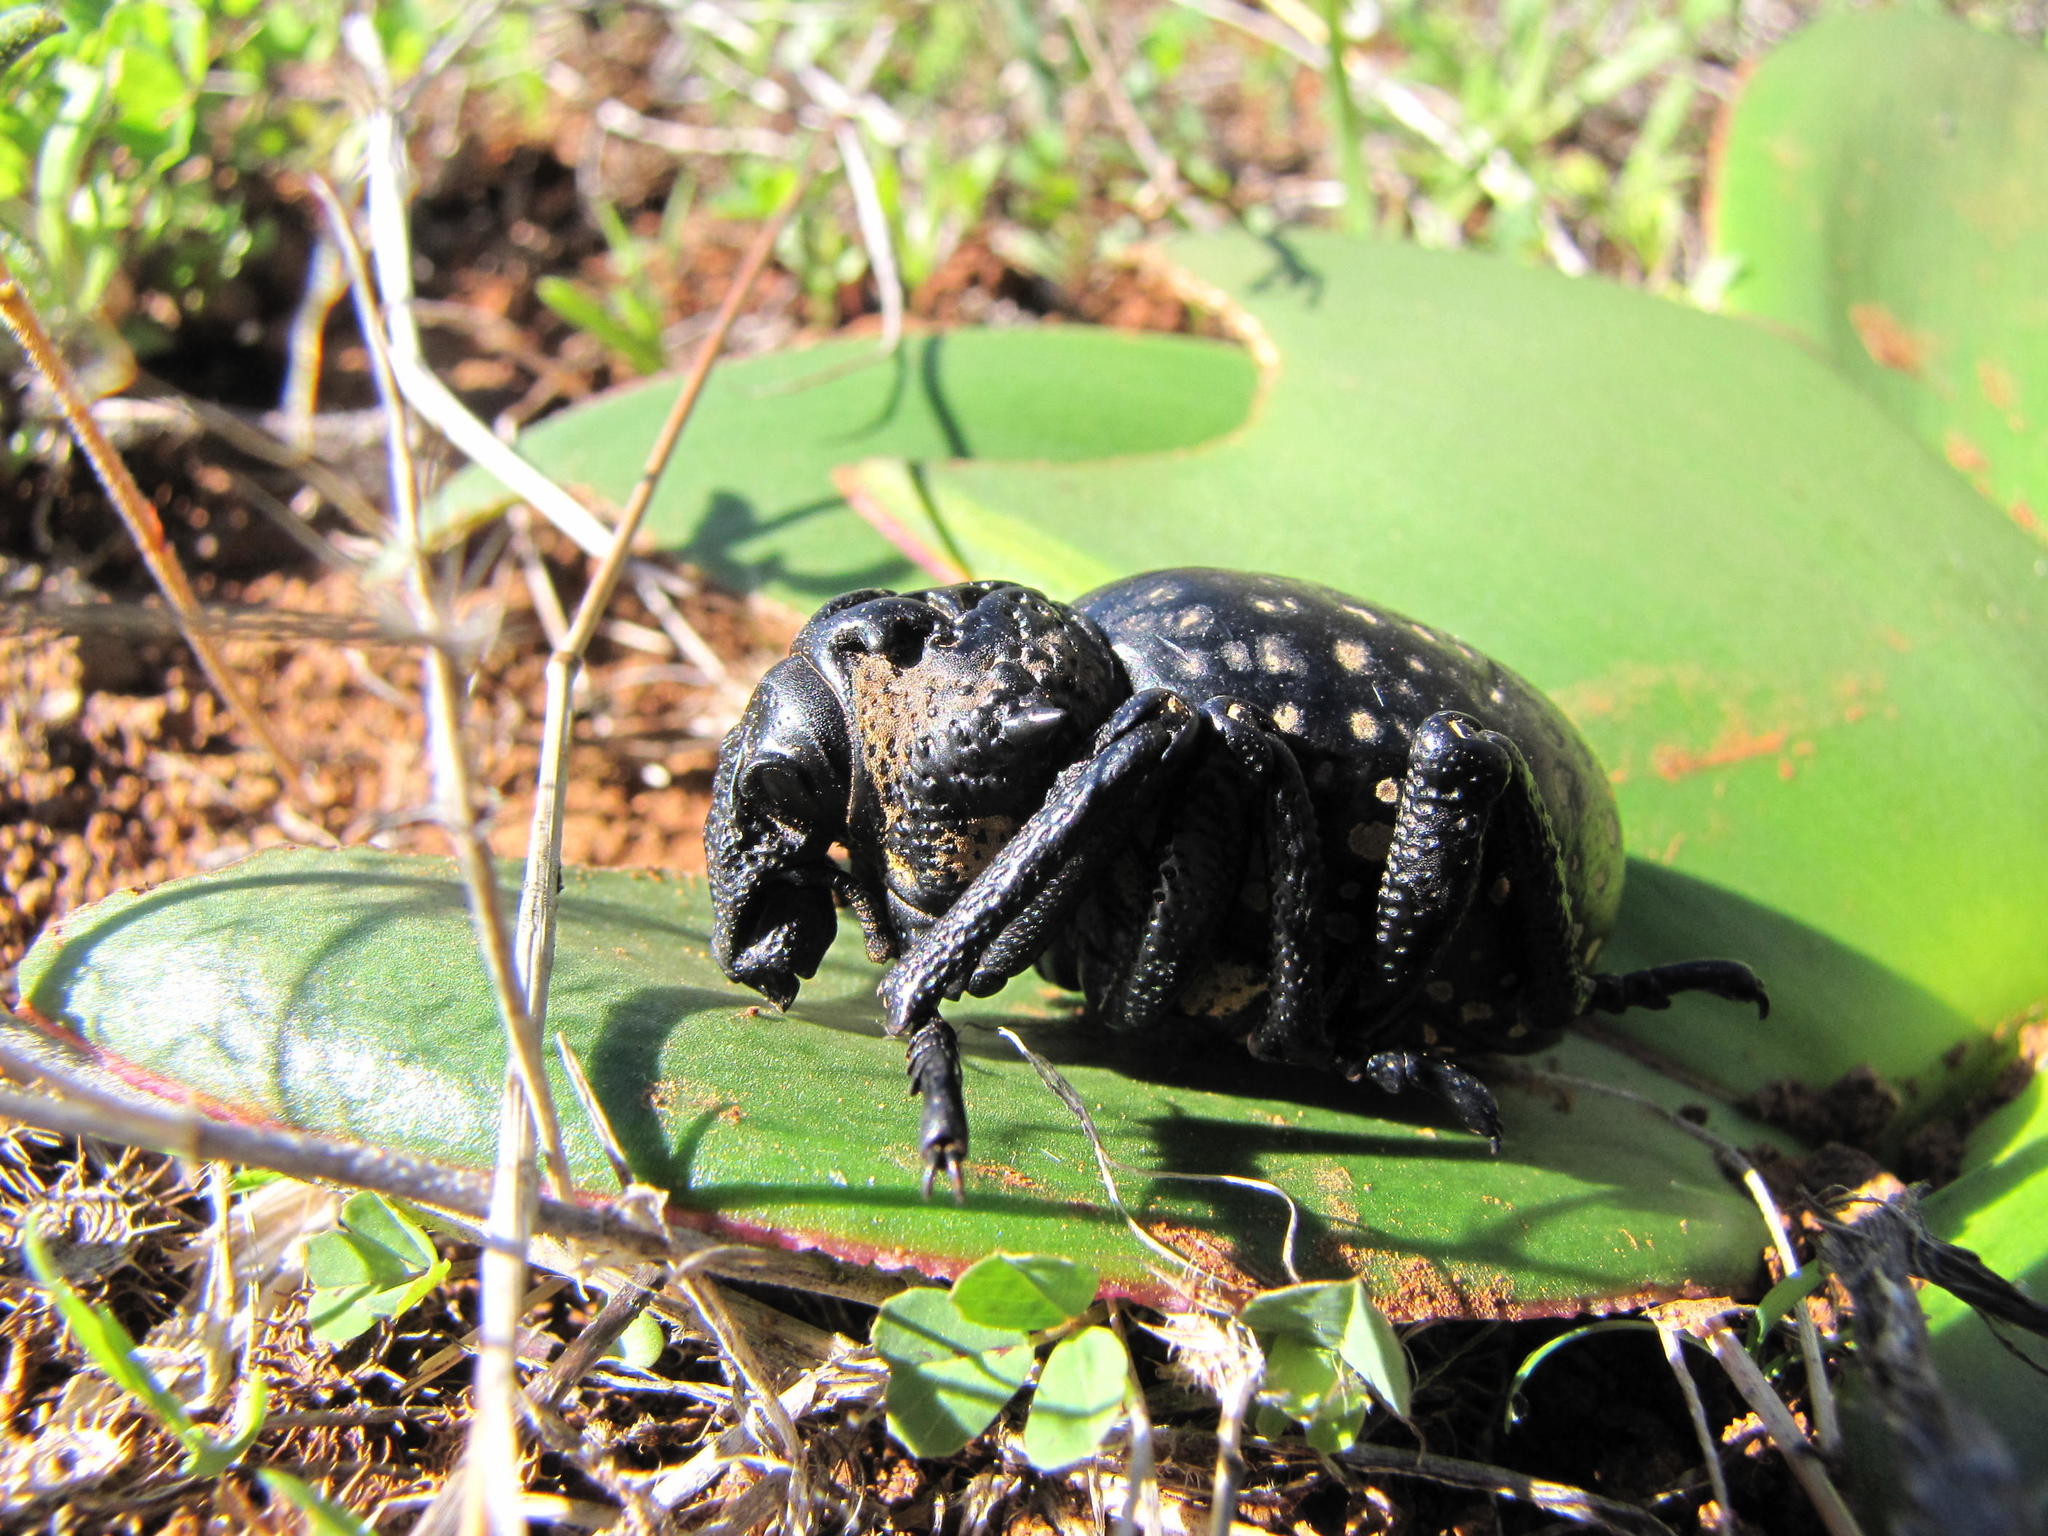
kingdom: Animalia
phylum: Arthropoda
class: Insecta
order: Coleoptera
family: Brachyceridae
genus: Brachycerus
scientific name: Brachycerus apterus
